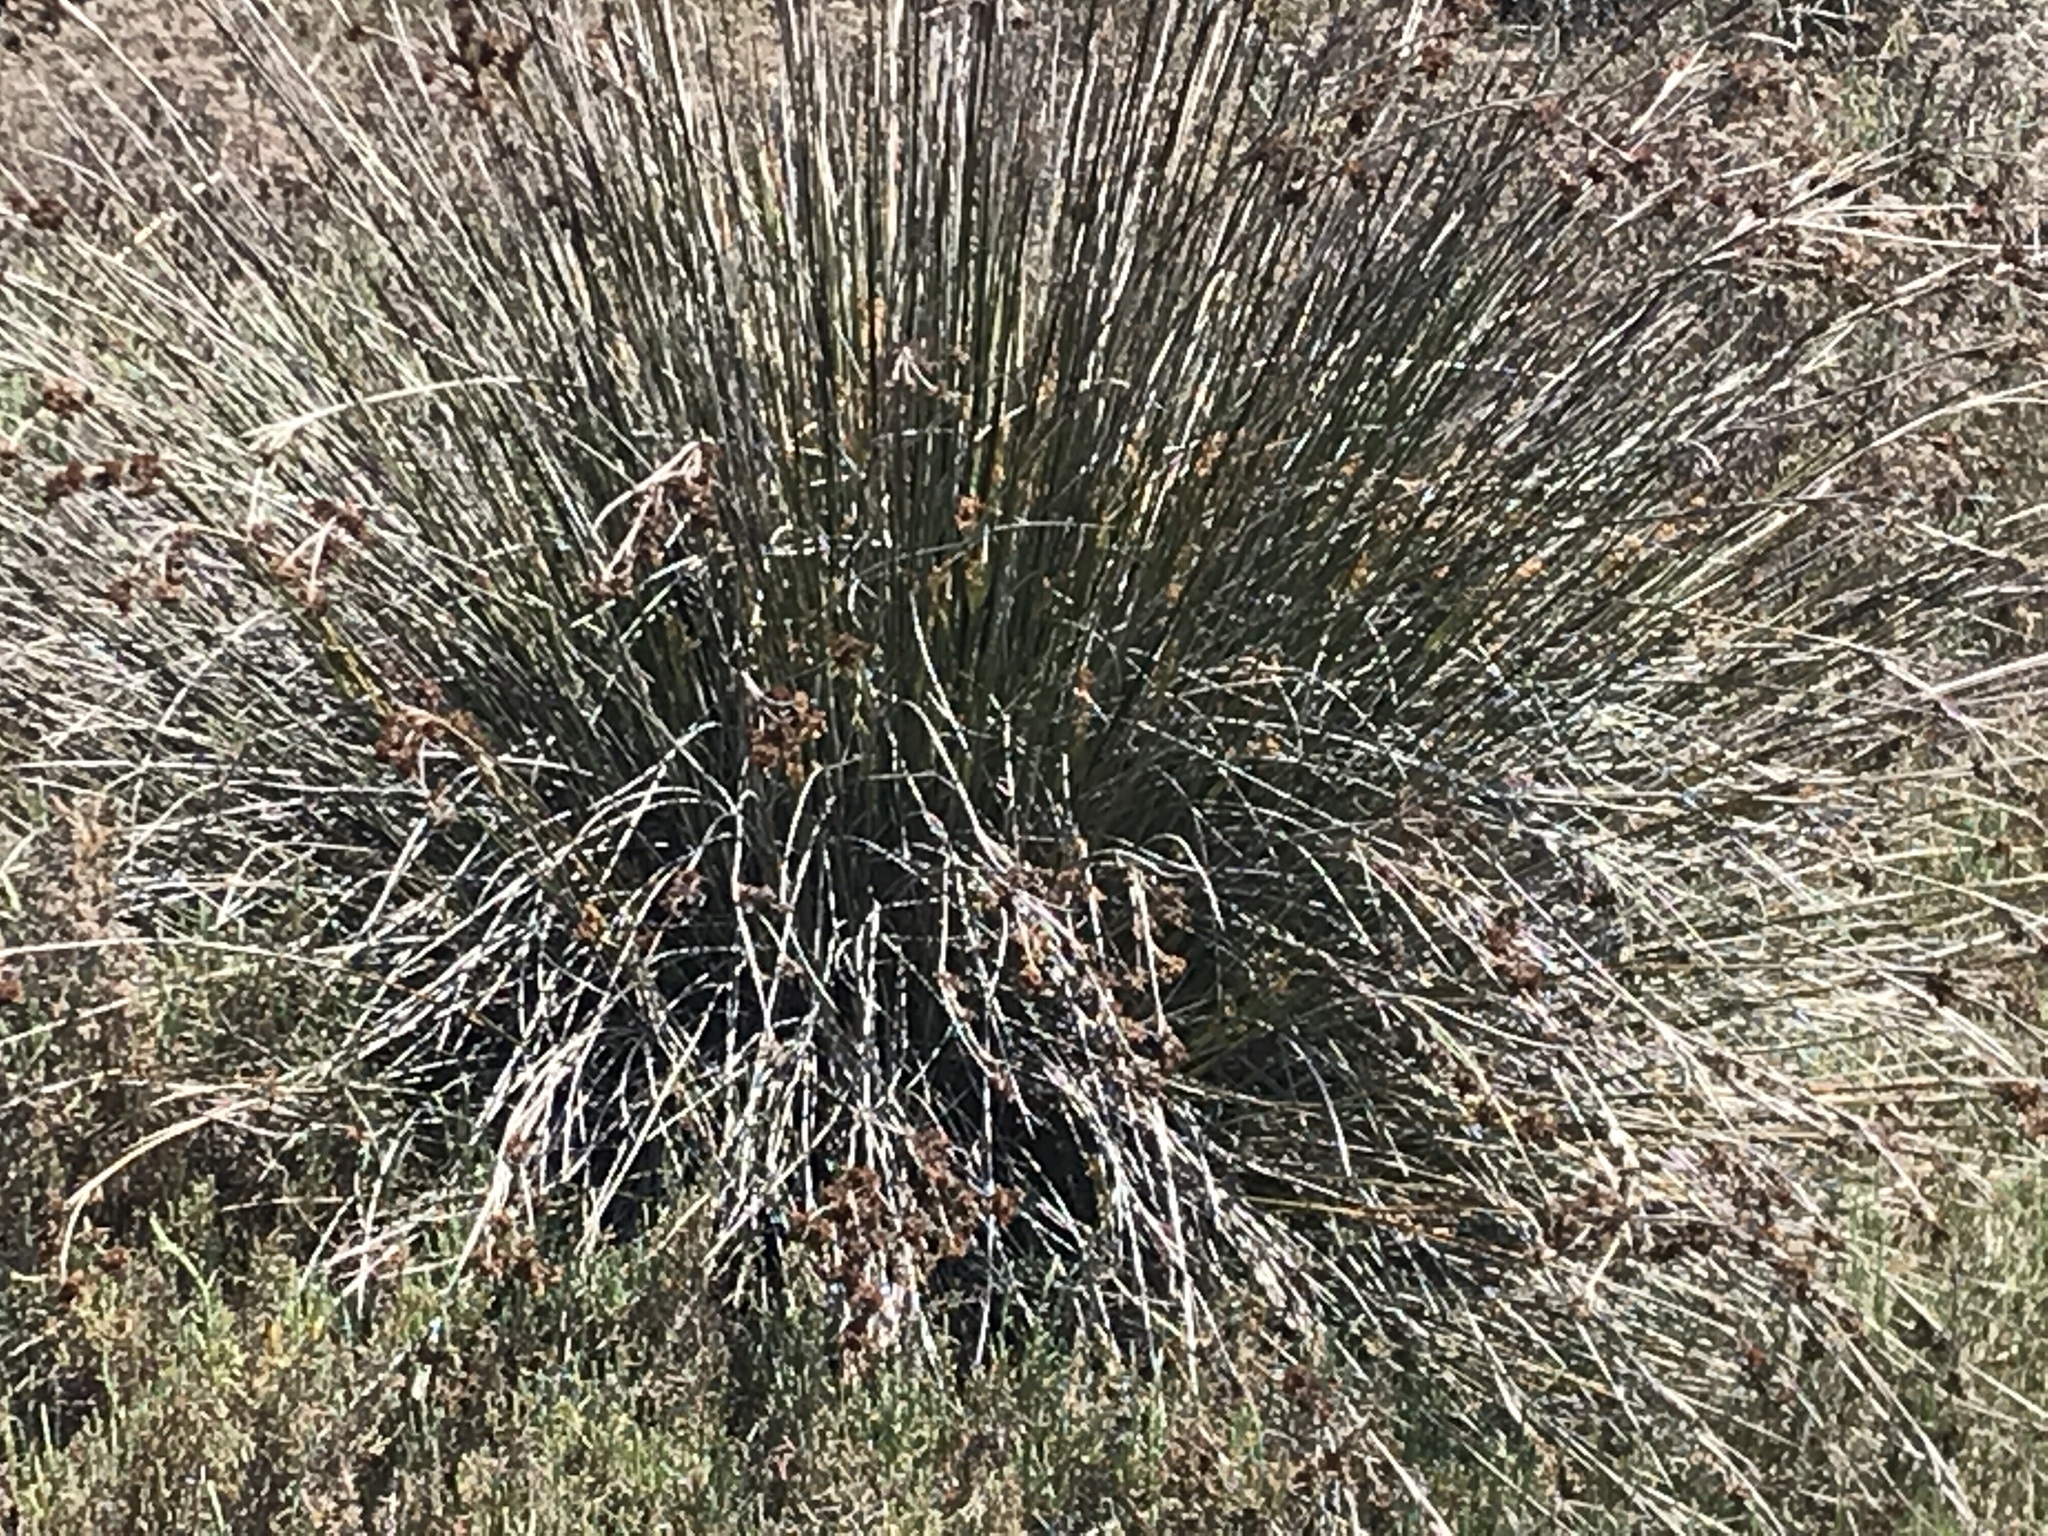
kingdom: Plantae
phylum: Tracheophyta
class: Liliopsida
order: Poales
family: Juncaceae
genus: Juncus
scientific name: Juncus acutus
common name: Sharp rush
